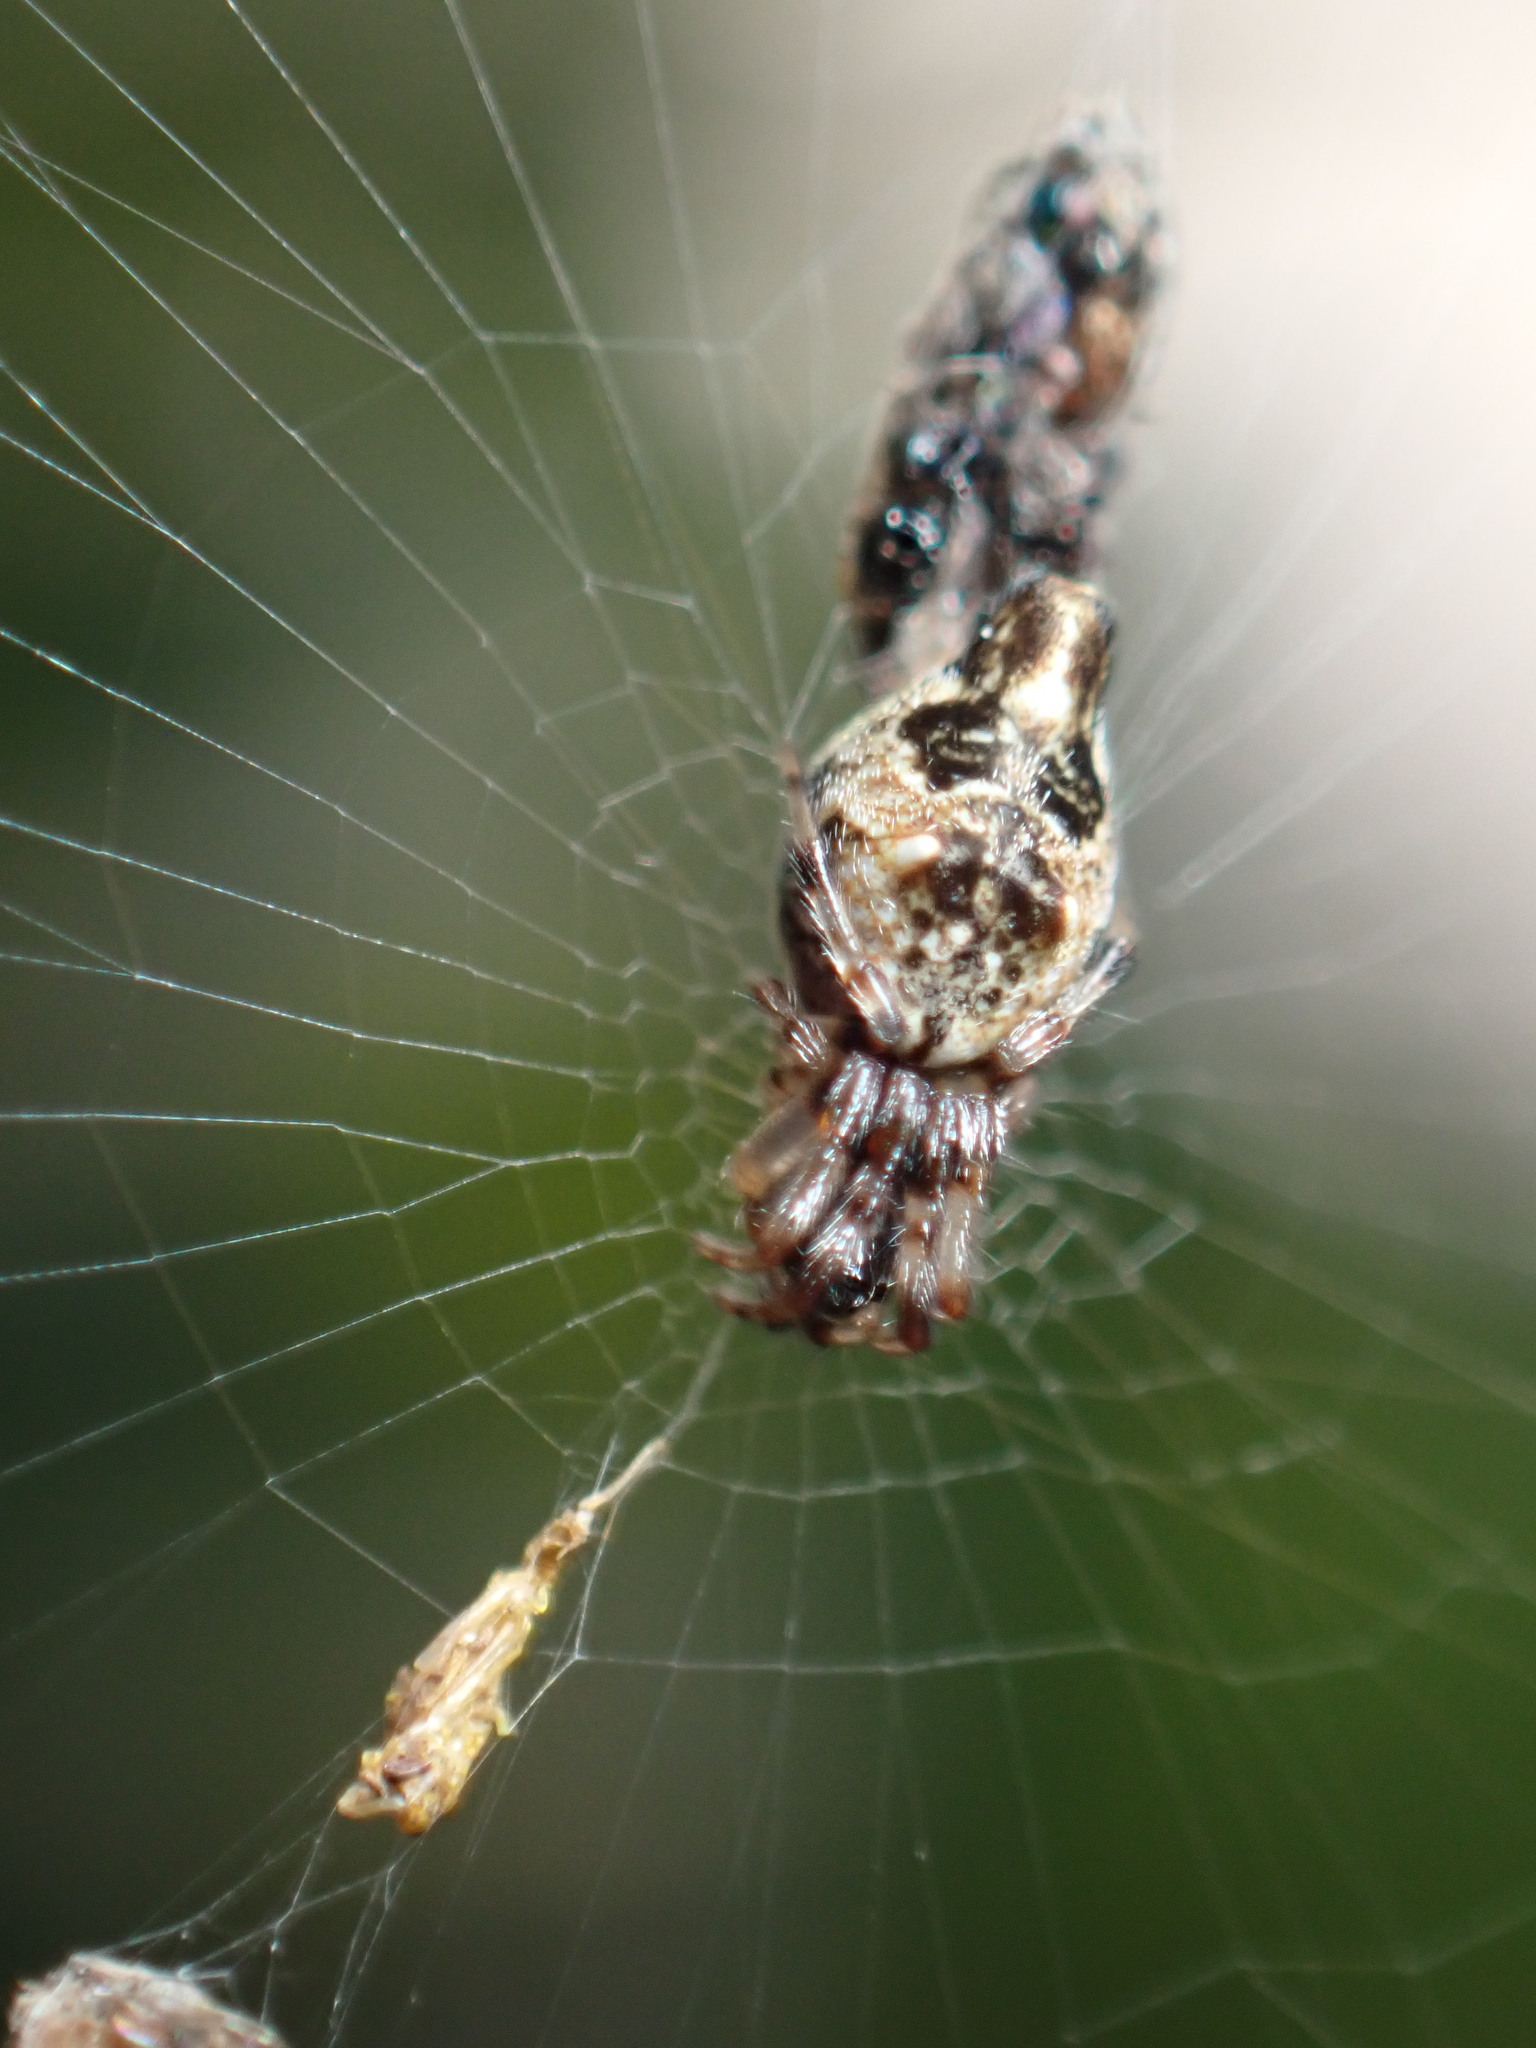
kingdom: Animalia
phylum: Arthropoda
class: Arachnida
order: Araneae
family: Araneidae
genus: Cyclosa
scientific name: Cyclosa turbinata
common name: Orb weavers
